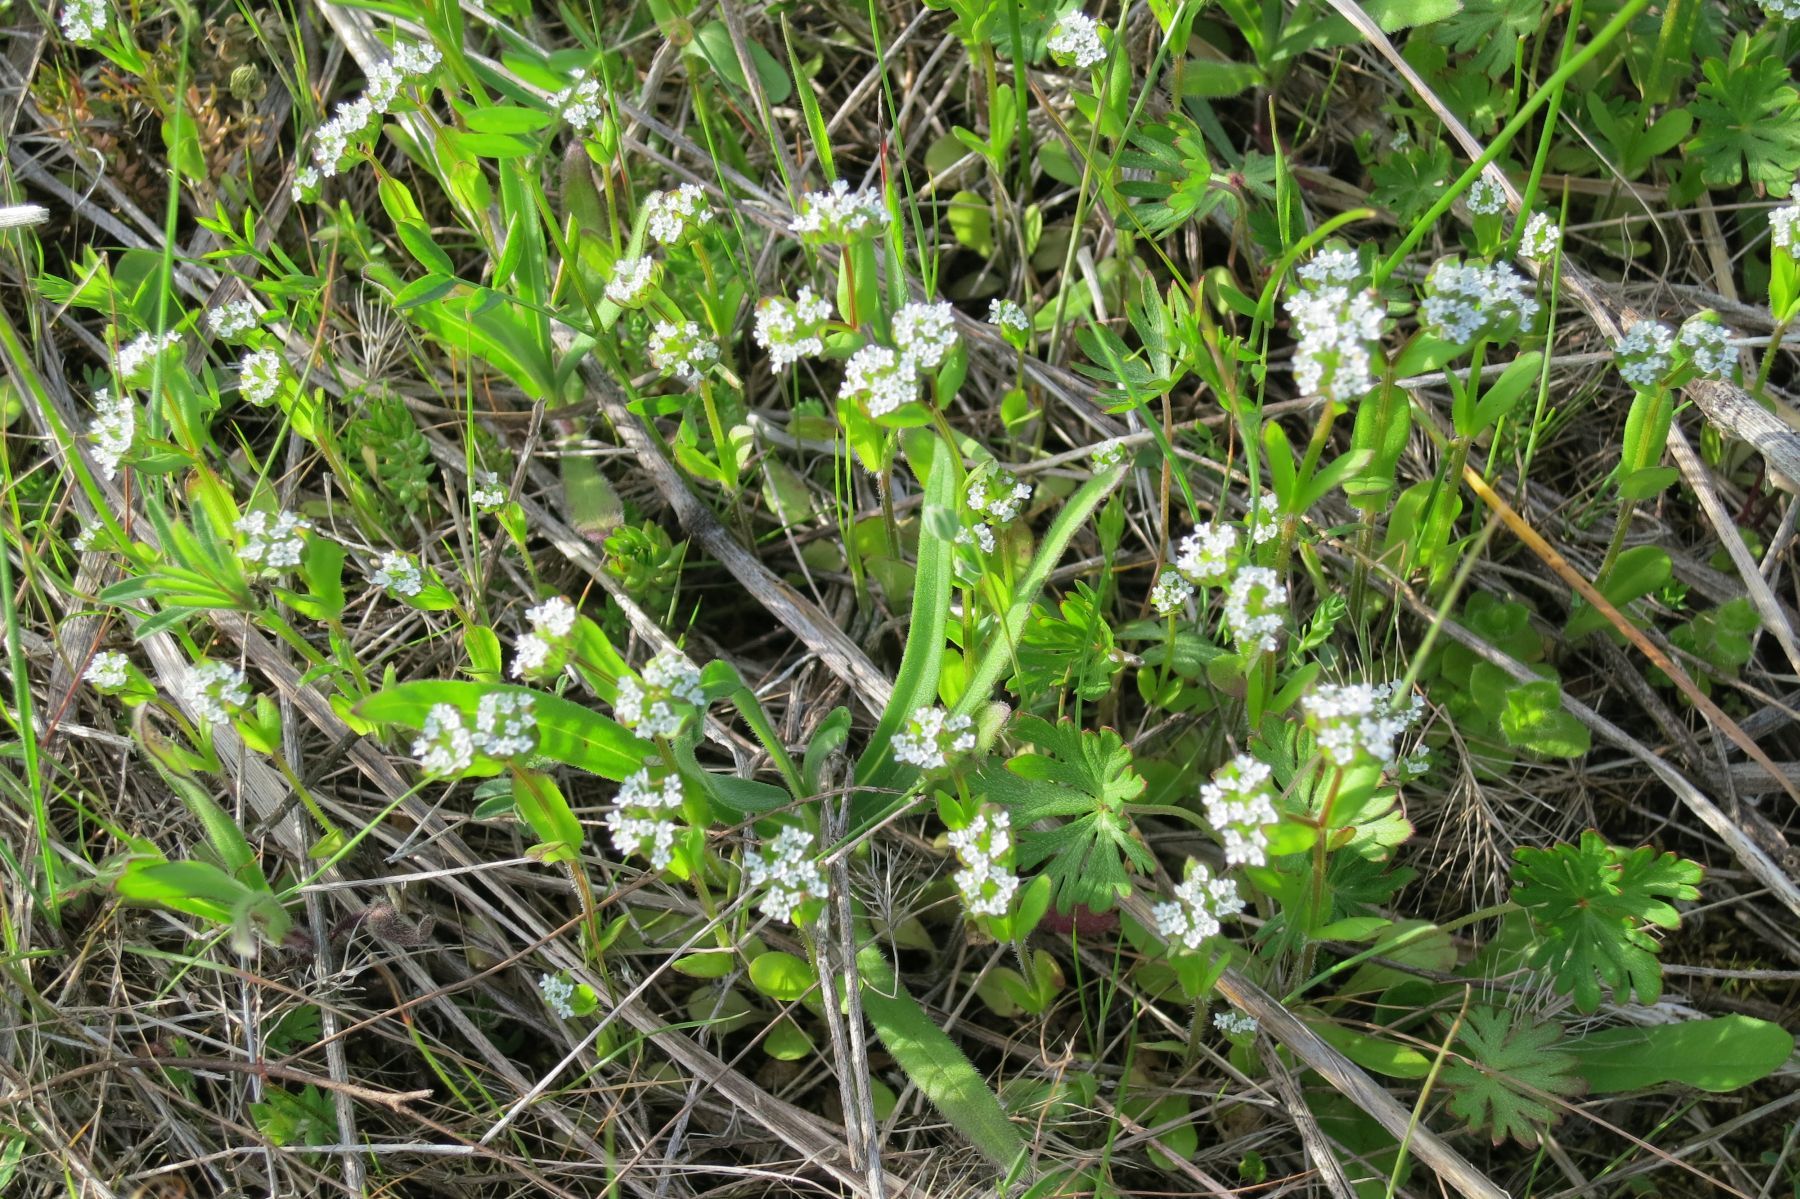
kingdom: Plantae
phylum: Tracheophyta
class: Magnoliopsida
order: Dipsacales
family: Caprifoliaceae
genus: Valerianella
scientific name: Valerianella locusta
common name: Common cornsalad
